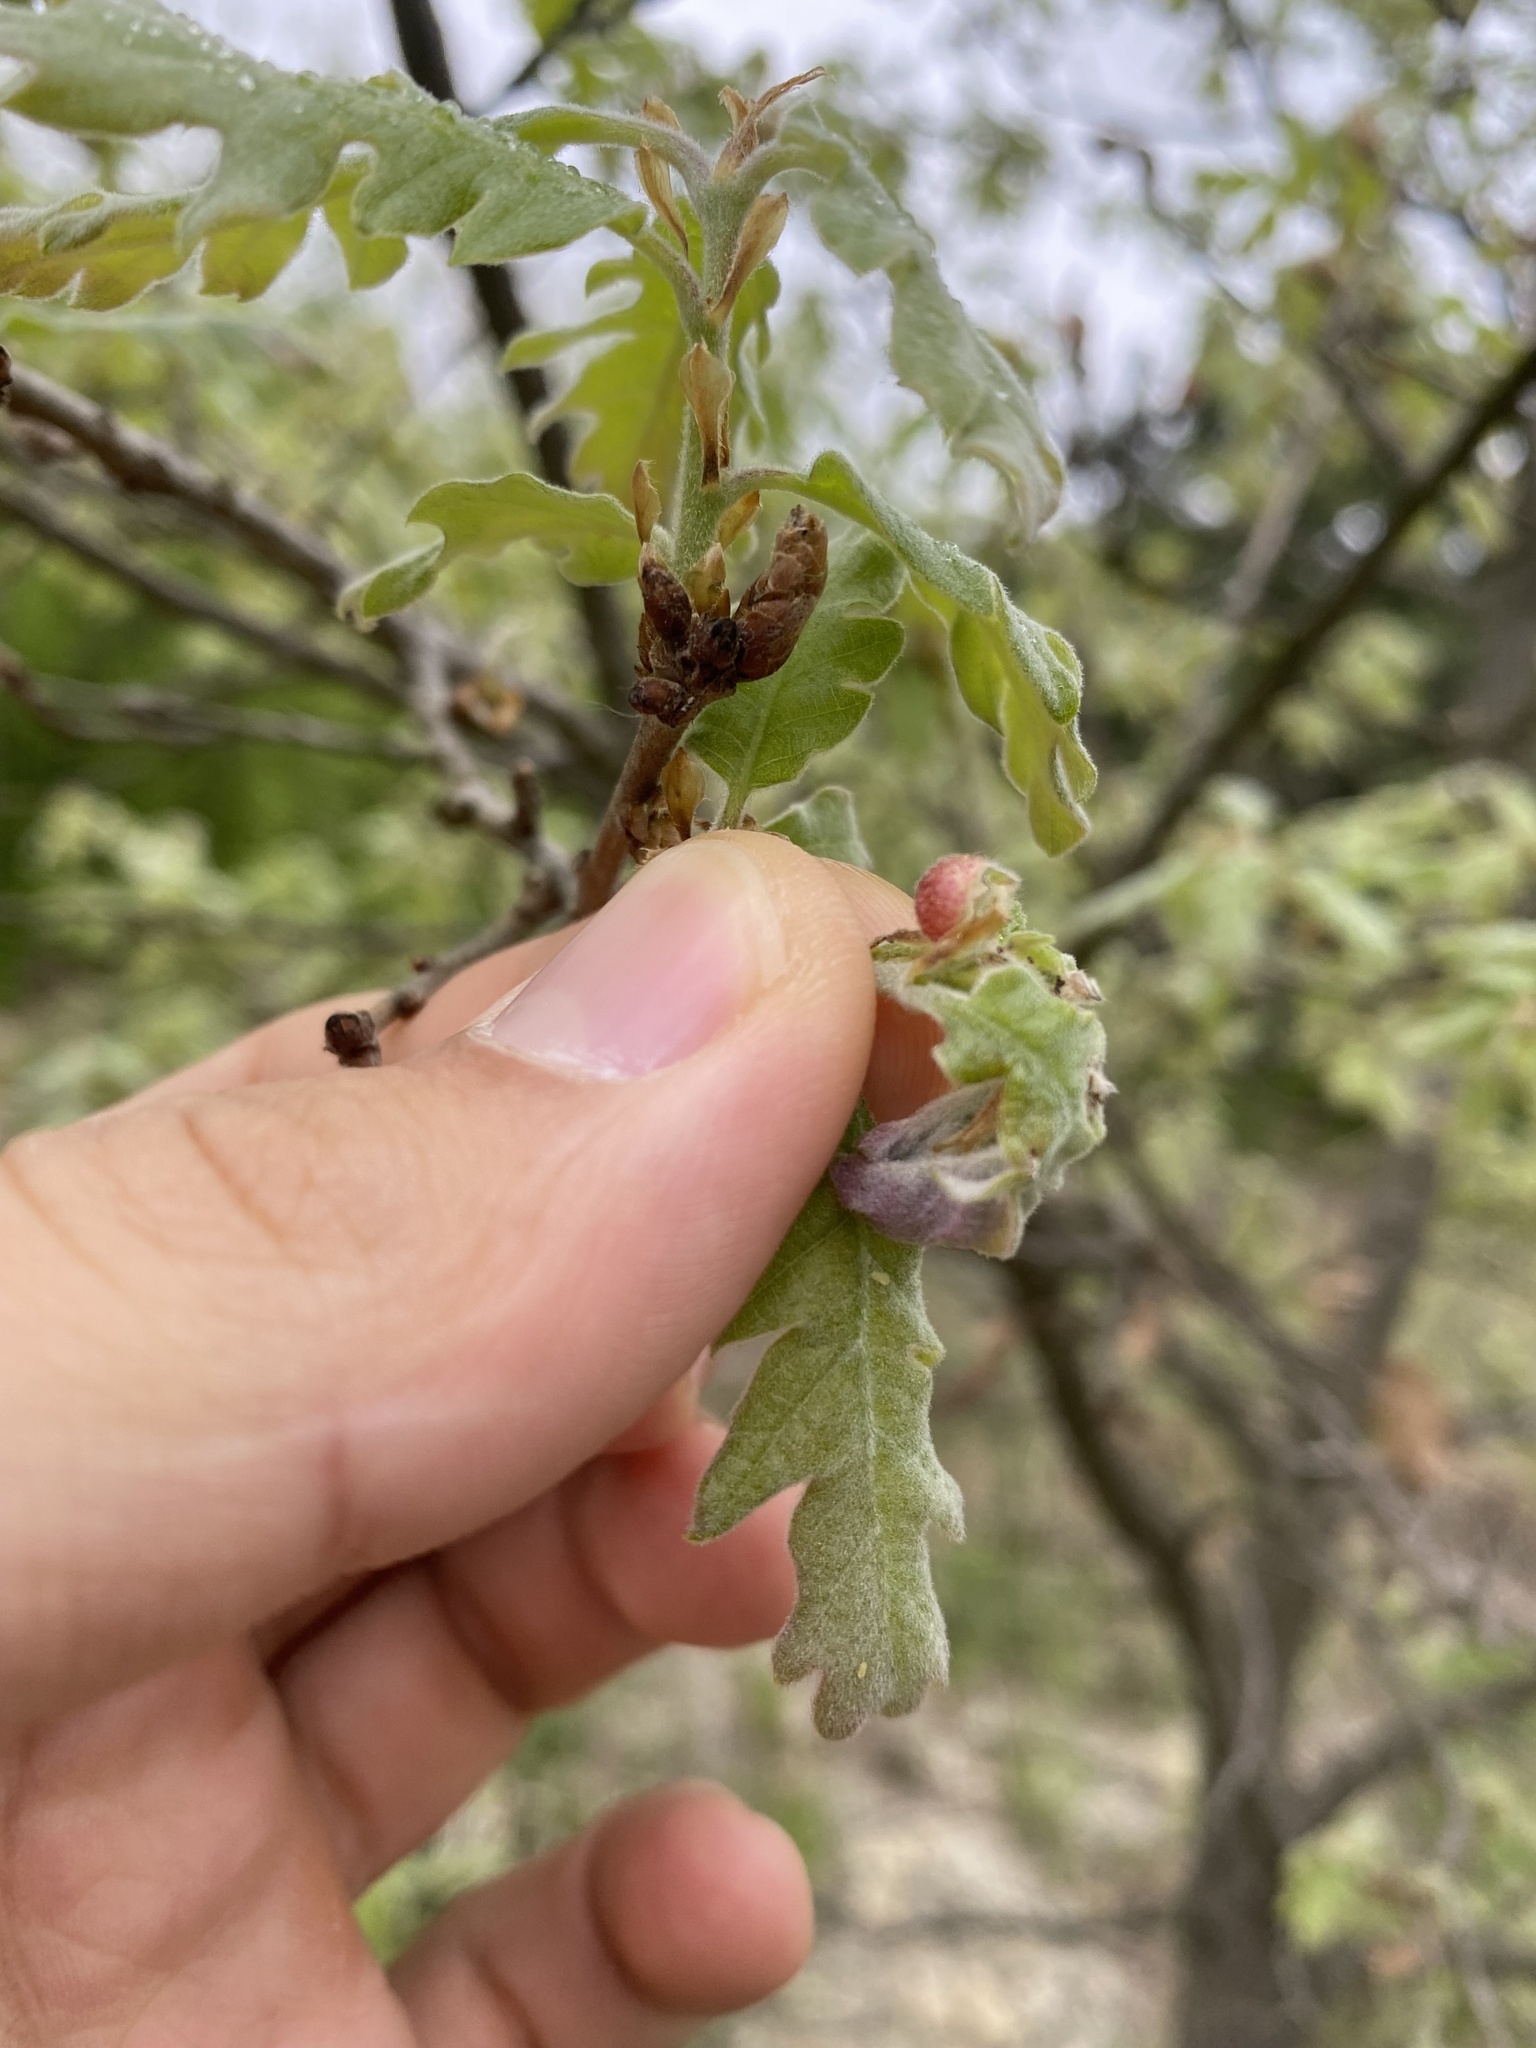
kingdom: Animalia
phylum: Arthropoda
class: Insecta
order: Hymenoptera
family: Cynipidae
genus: Neuroterus
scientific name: Neuroterus quercusbaccarum
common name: Common spangle gall
